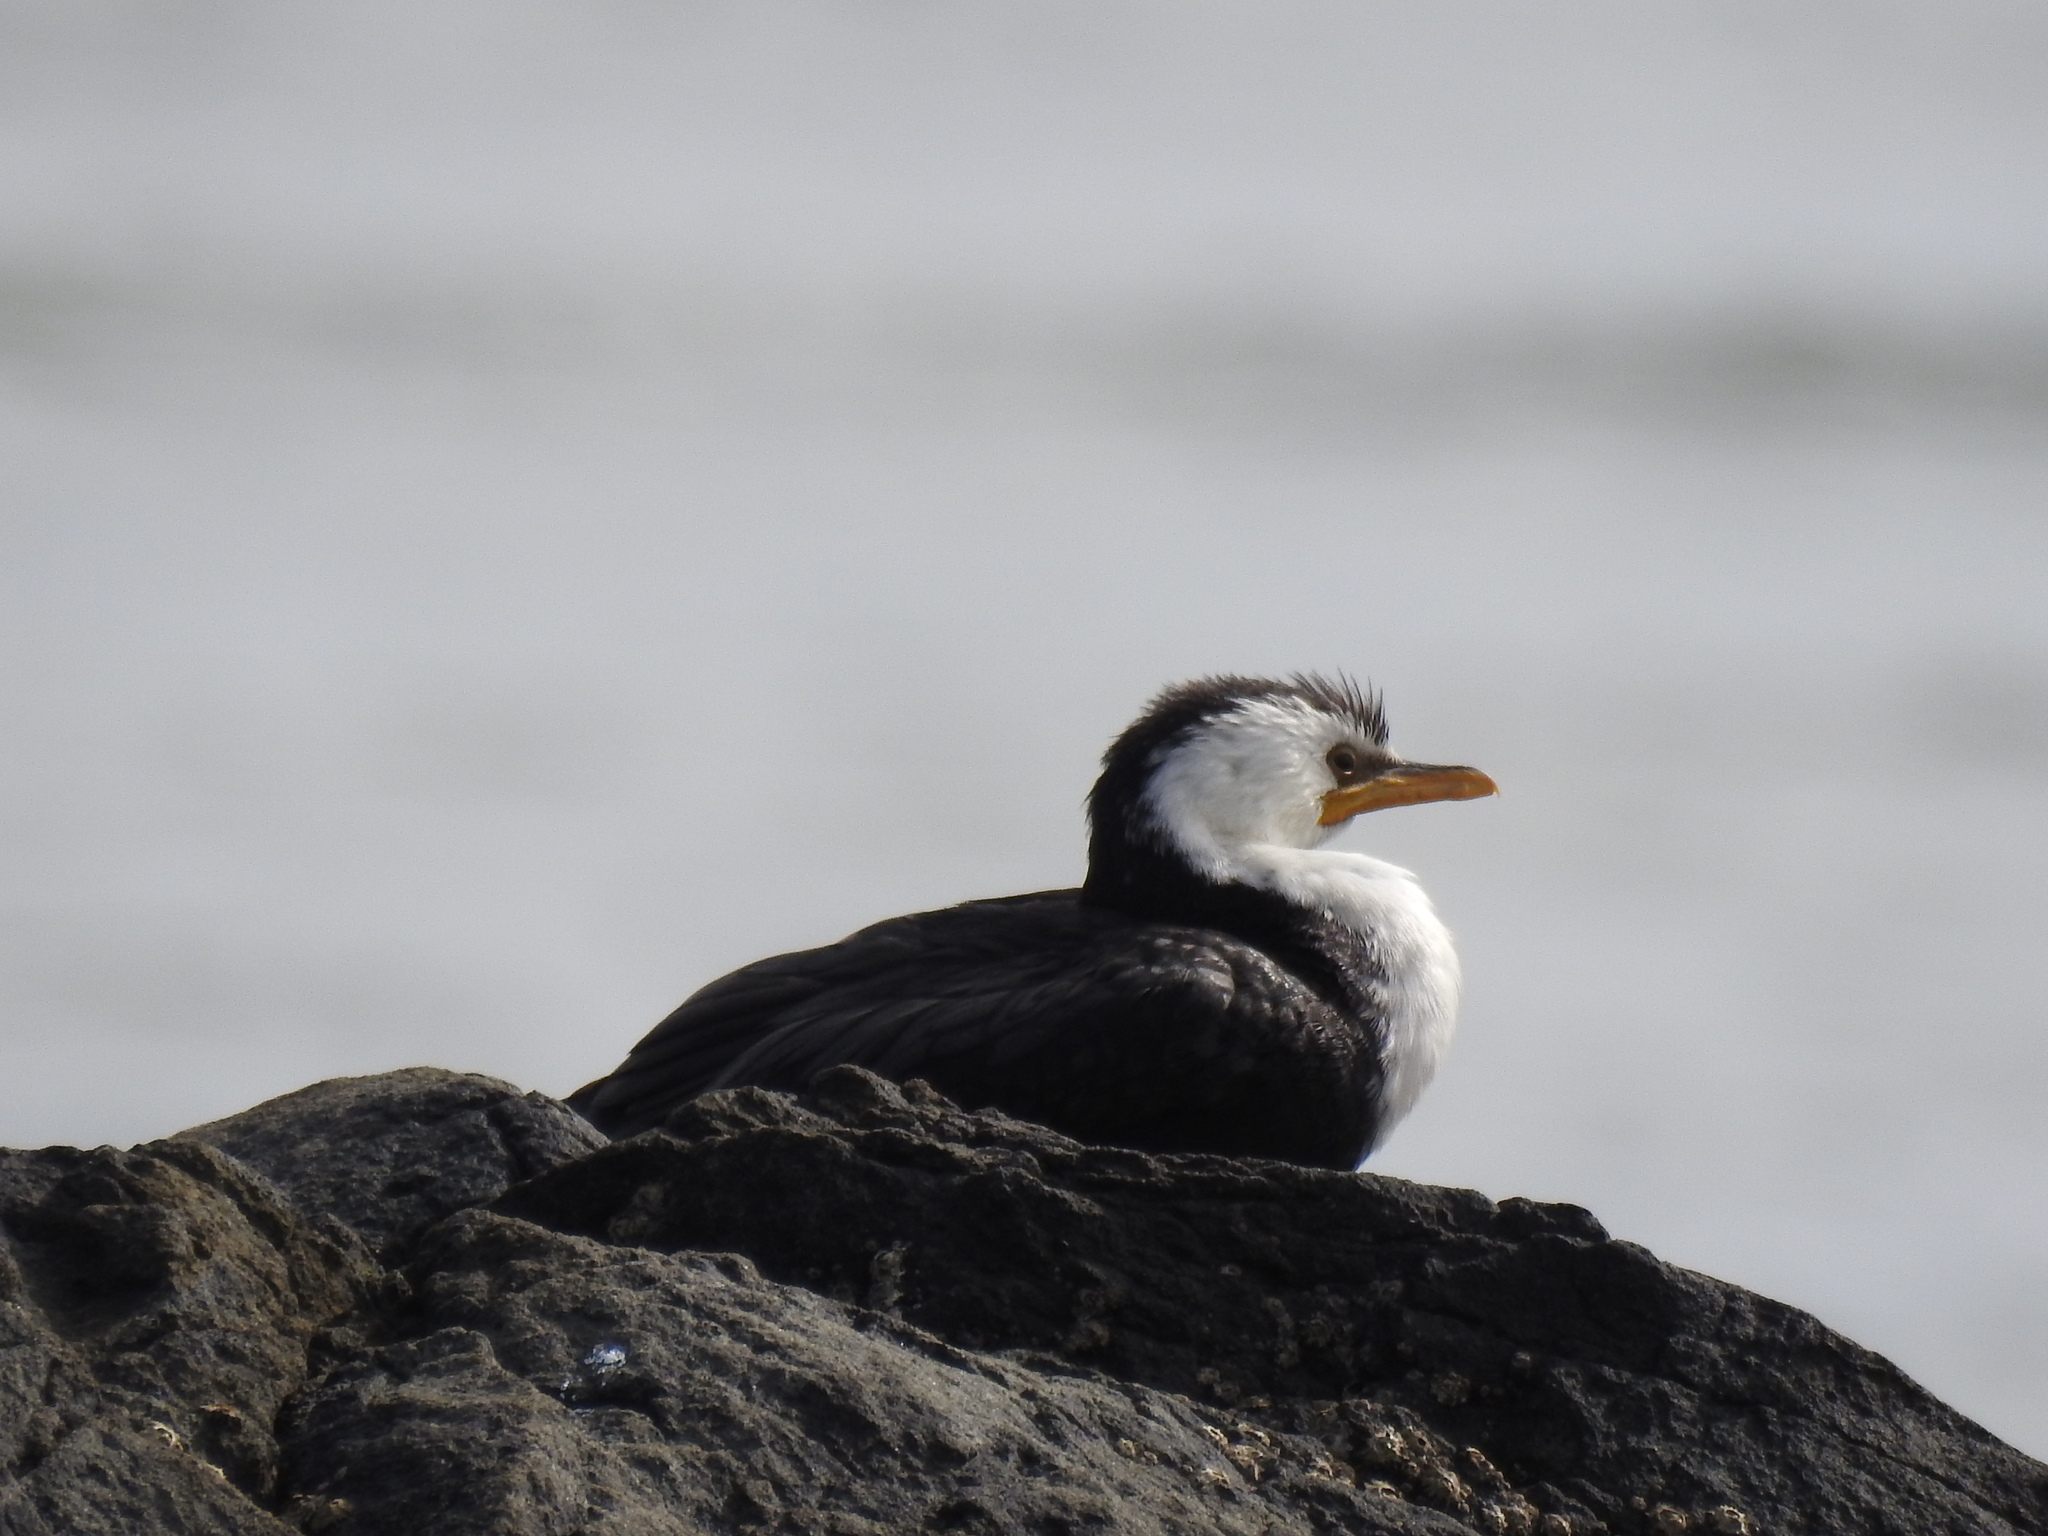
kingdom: Animalia
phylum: Chordata
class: Aves
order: Suliformes
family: Phalacrocoracidae
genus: Microcarbo
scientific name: Microcarbo melanoleucos
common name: Little pied cormorant
